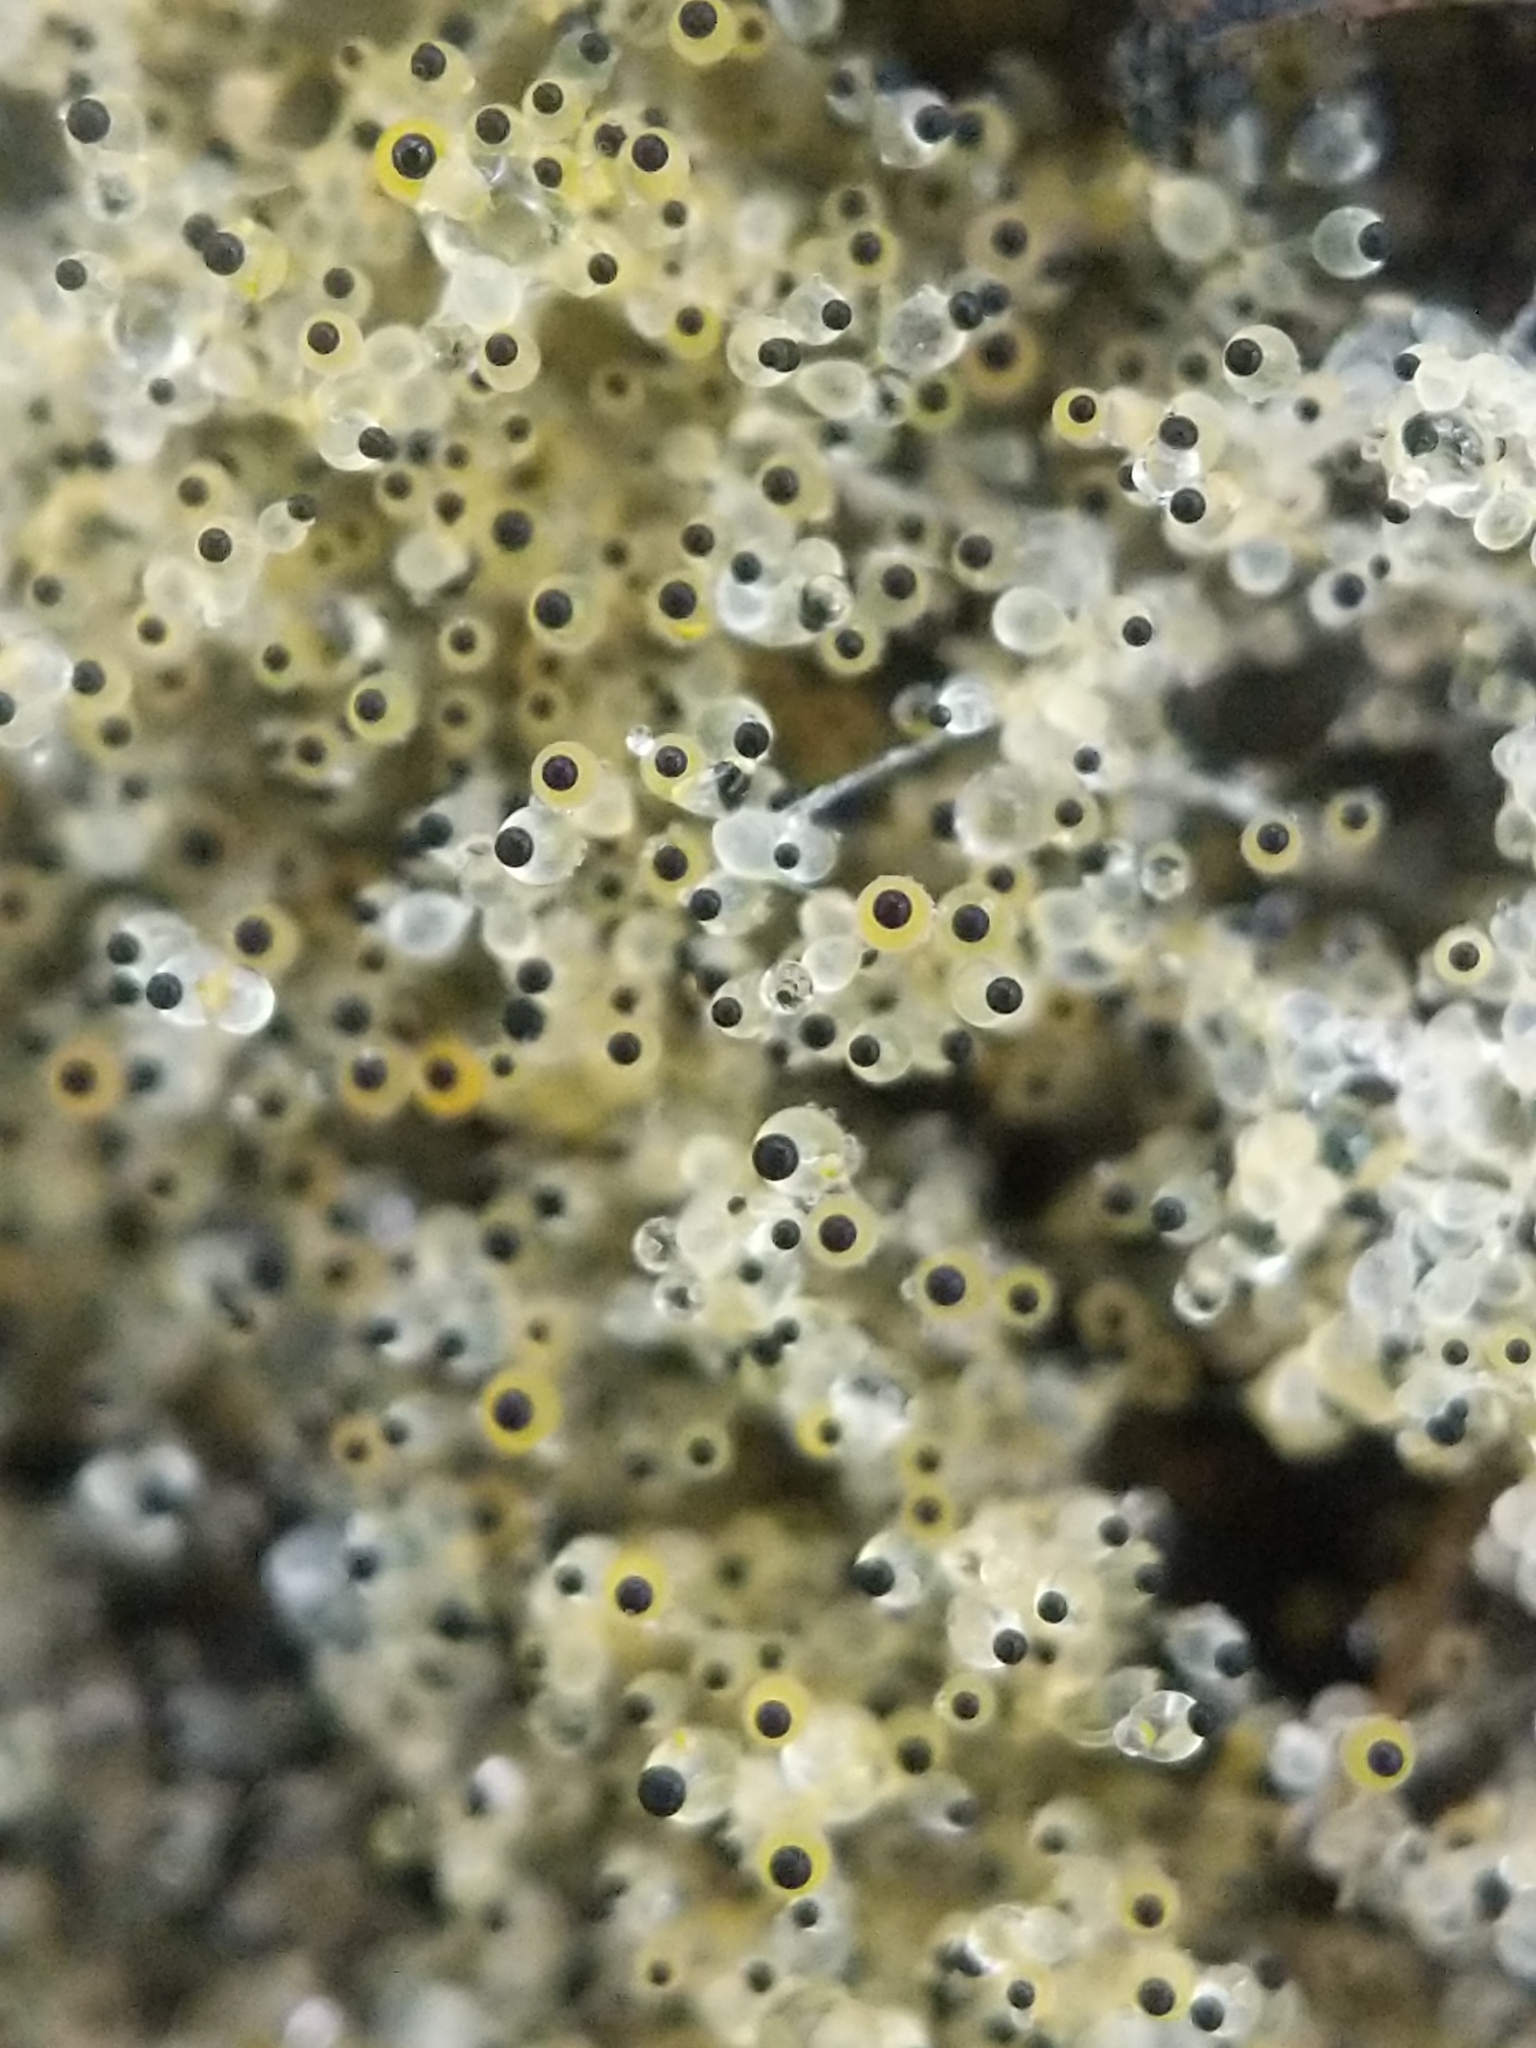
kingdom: Fungi
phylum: Mucoromycota
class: Mucoromycetes
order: Mucorales
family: Pilobolaceae
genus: Pilobolus
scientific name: Pilobolus
